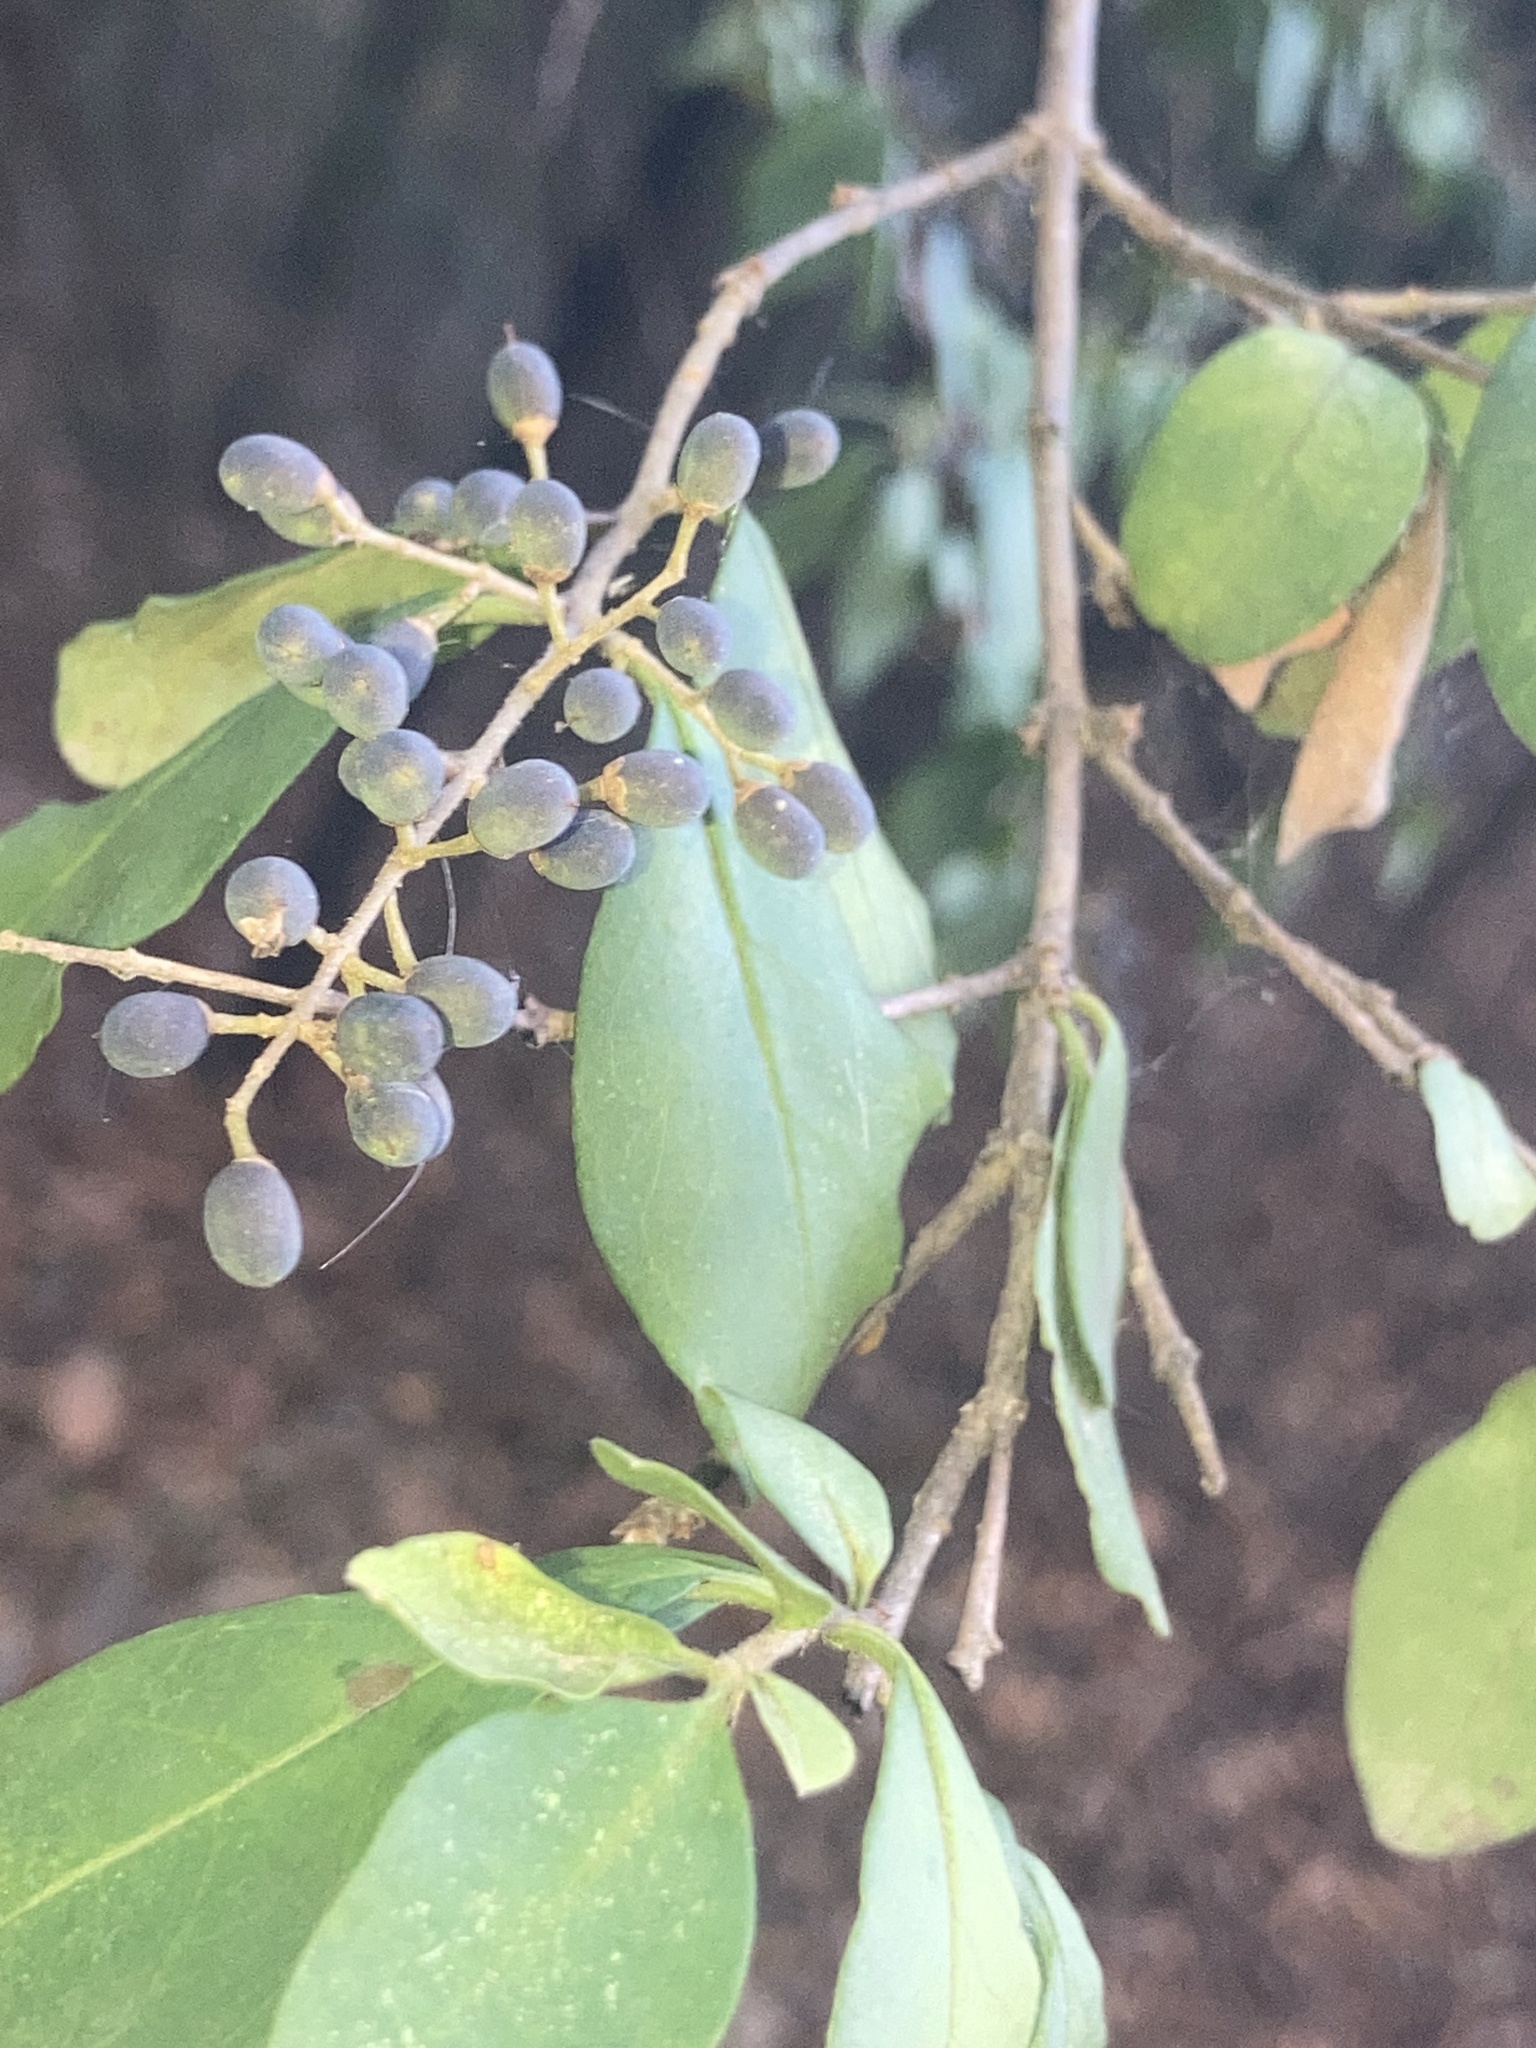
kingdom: Plantae
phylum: Tracheophyta
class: Magnoliopsida
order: Lamiales
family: Oleaceae
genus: Ligustrum
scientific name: Ligustrum sinense
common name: Chinese privet
